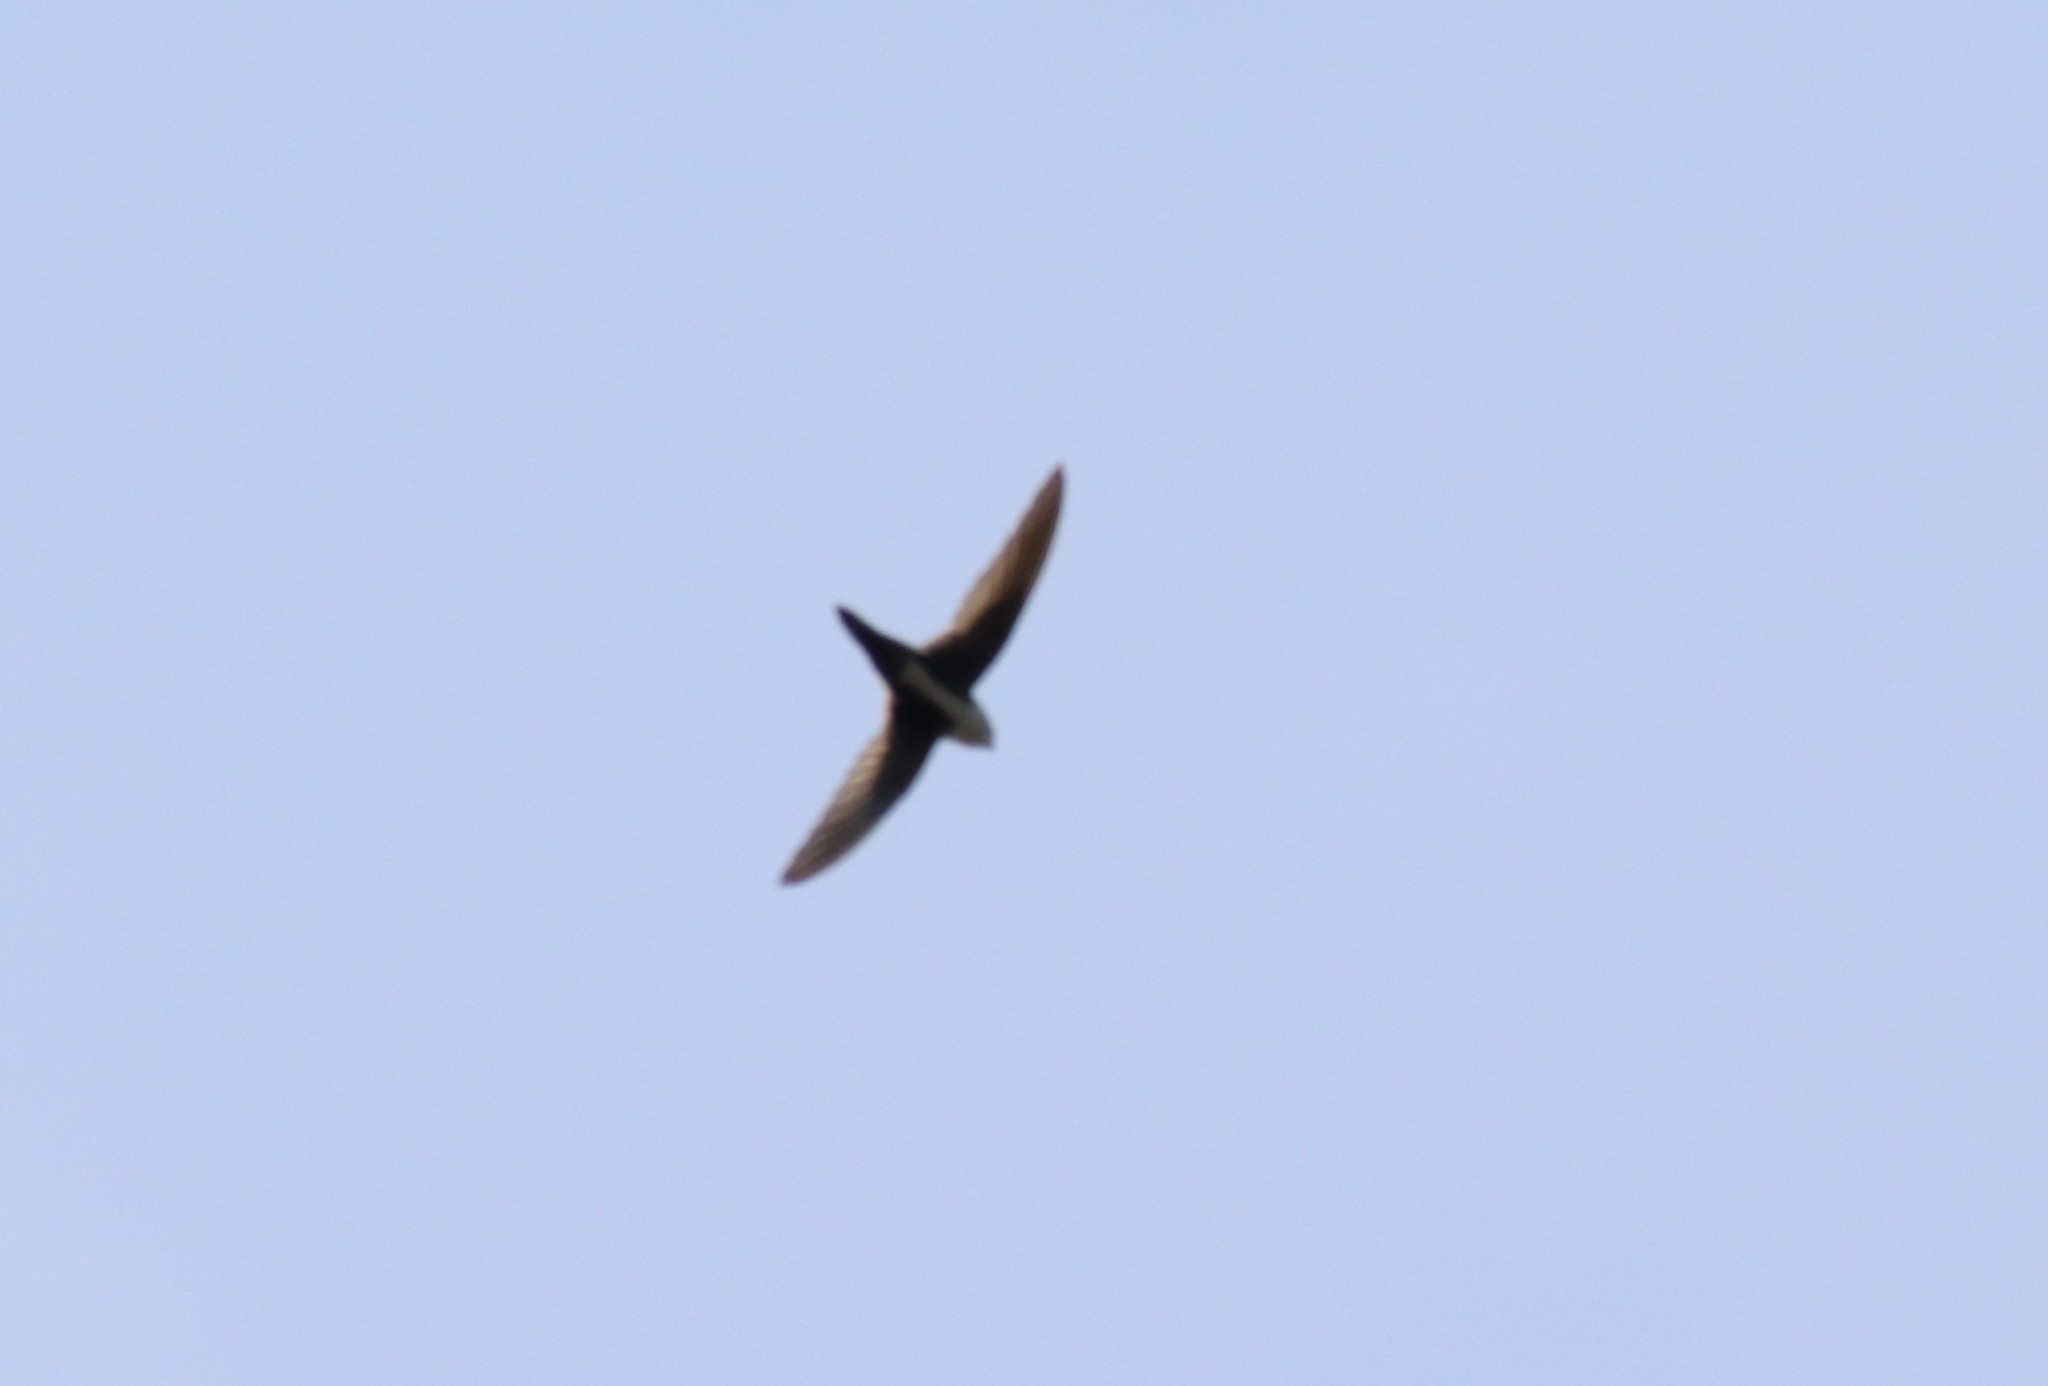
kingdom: Animalia
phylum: Chordata
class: Aves
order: Apodiformes
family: Apodidae
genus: Aeronautes
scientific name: Aeronautes saxatalis
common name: White-throated swift
